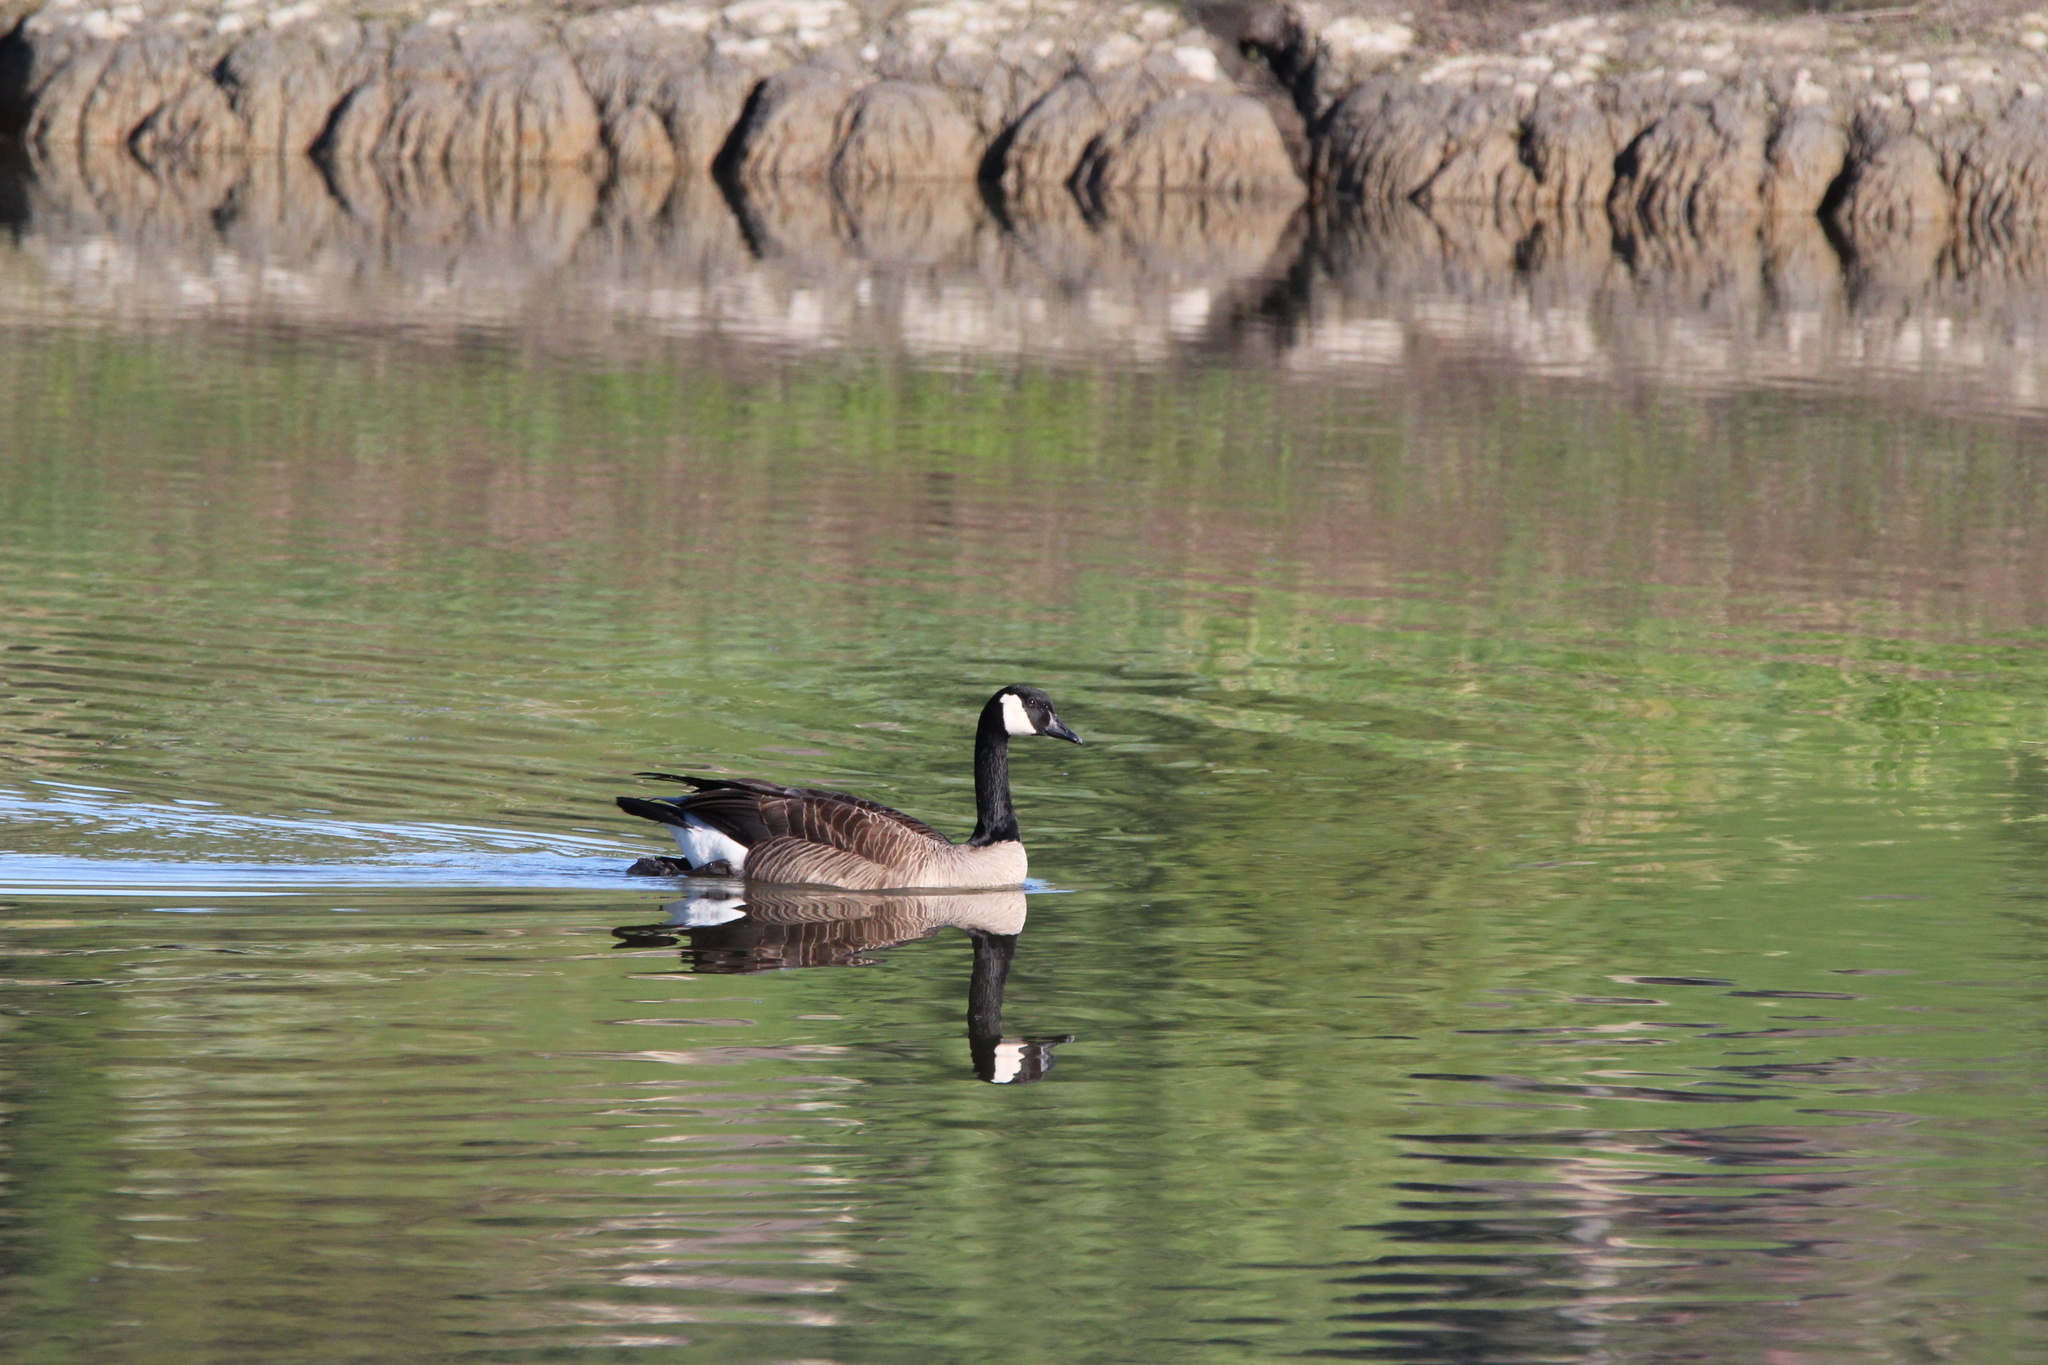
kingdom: Animalia
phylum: Chordata
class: Aves
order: Anseriformes
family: Anatidae
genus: Branta
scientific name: Branta canadensis
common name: Canada goose
